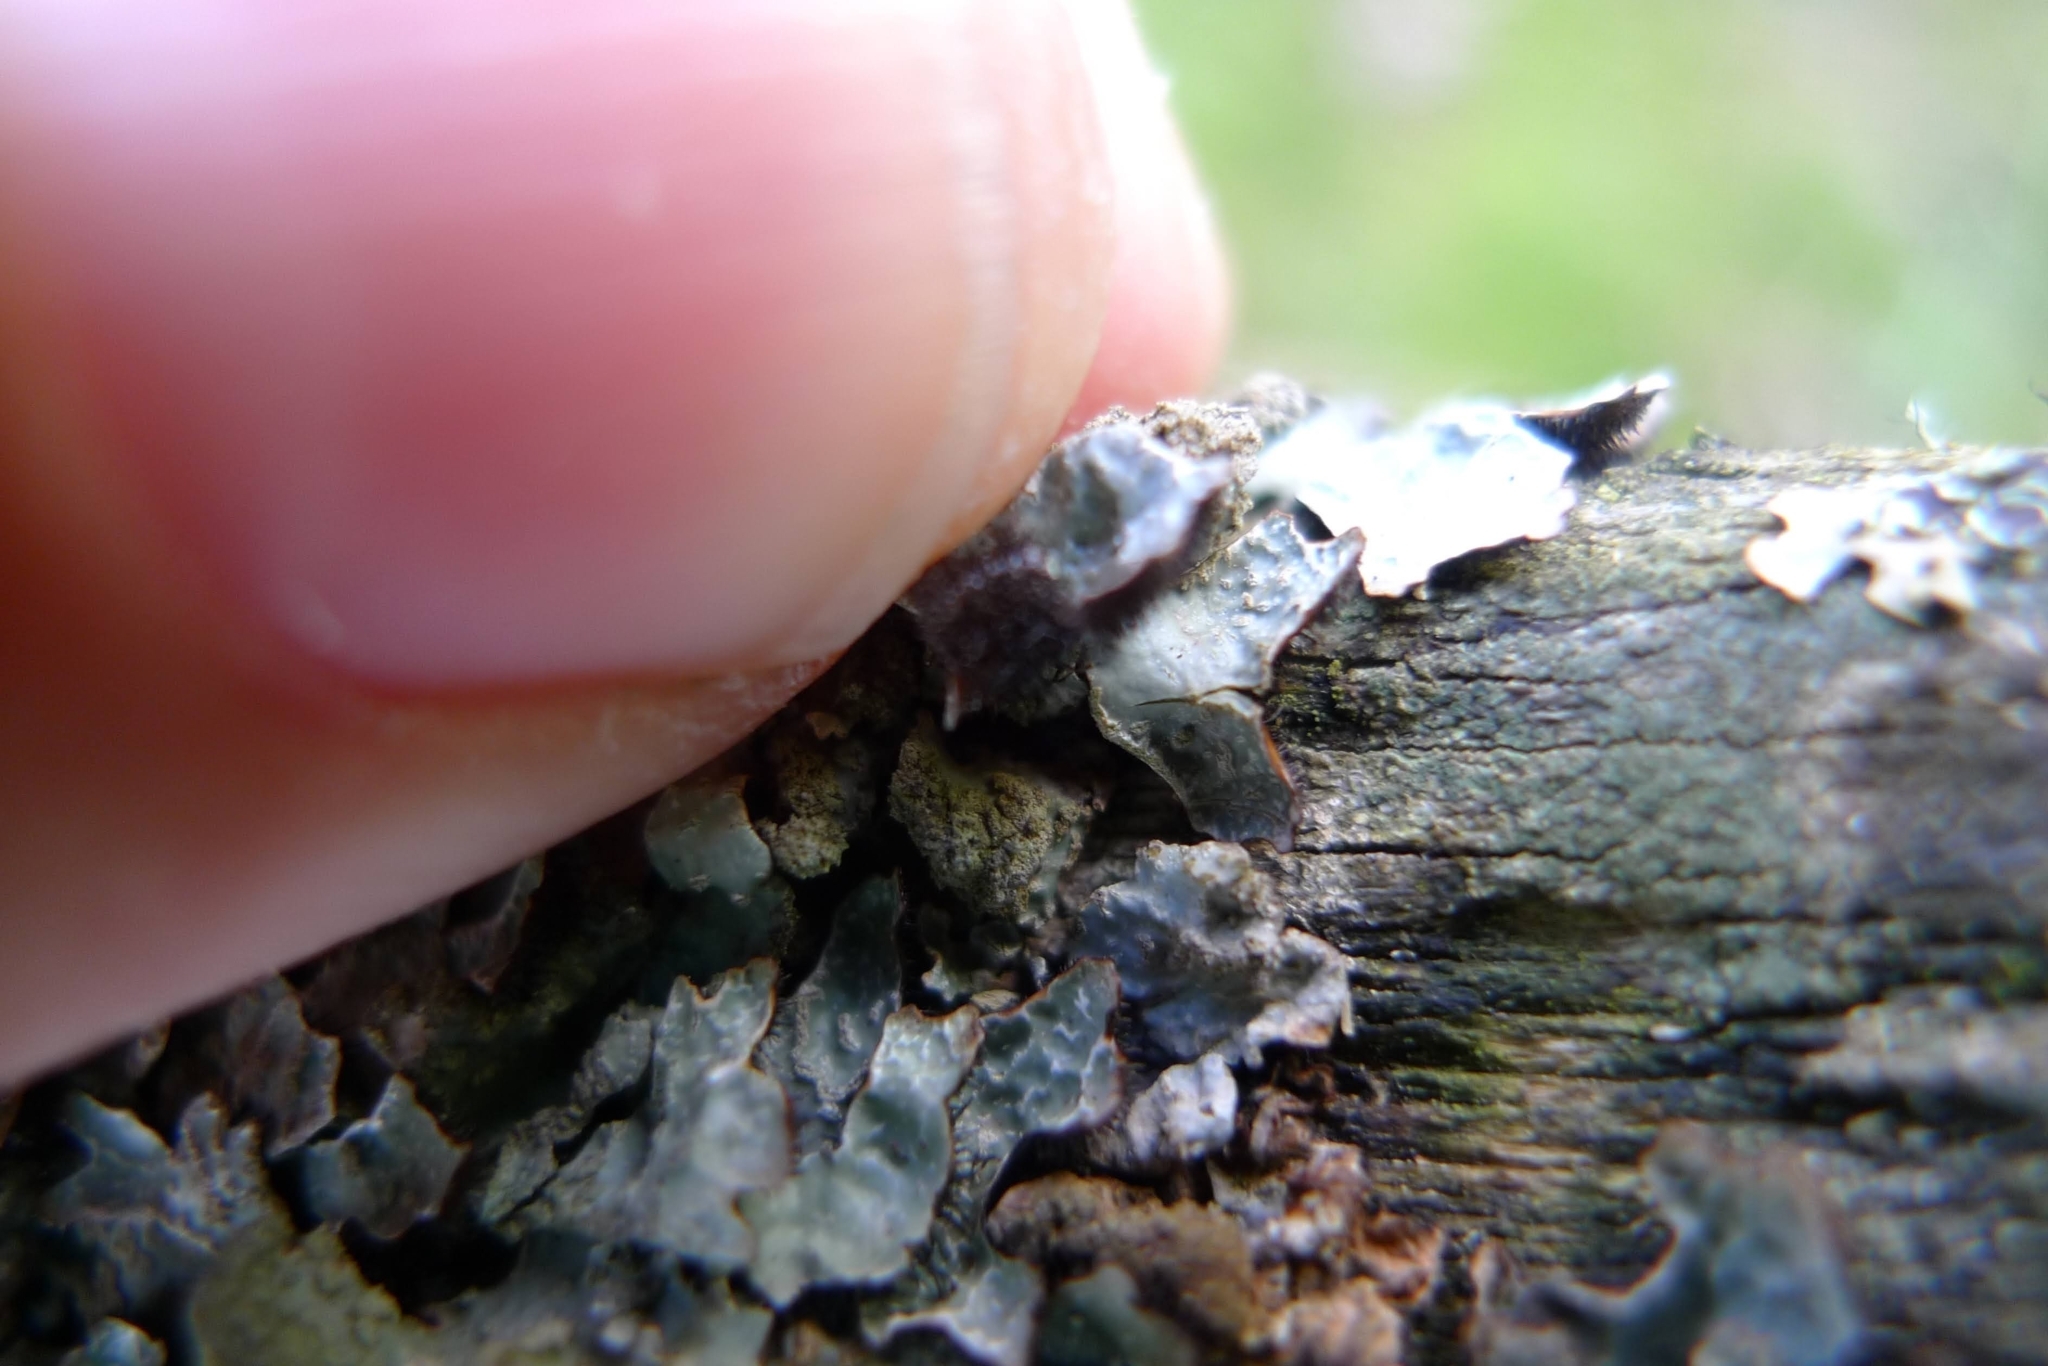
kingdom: Fungi
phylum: Ascomycota
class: Lecanoromycetes
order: Lecanorales
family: Parmeliaceae
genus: Parmelia
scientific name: Parmelia sulcata
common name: Netted shield lichen
